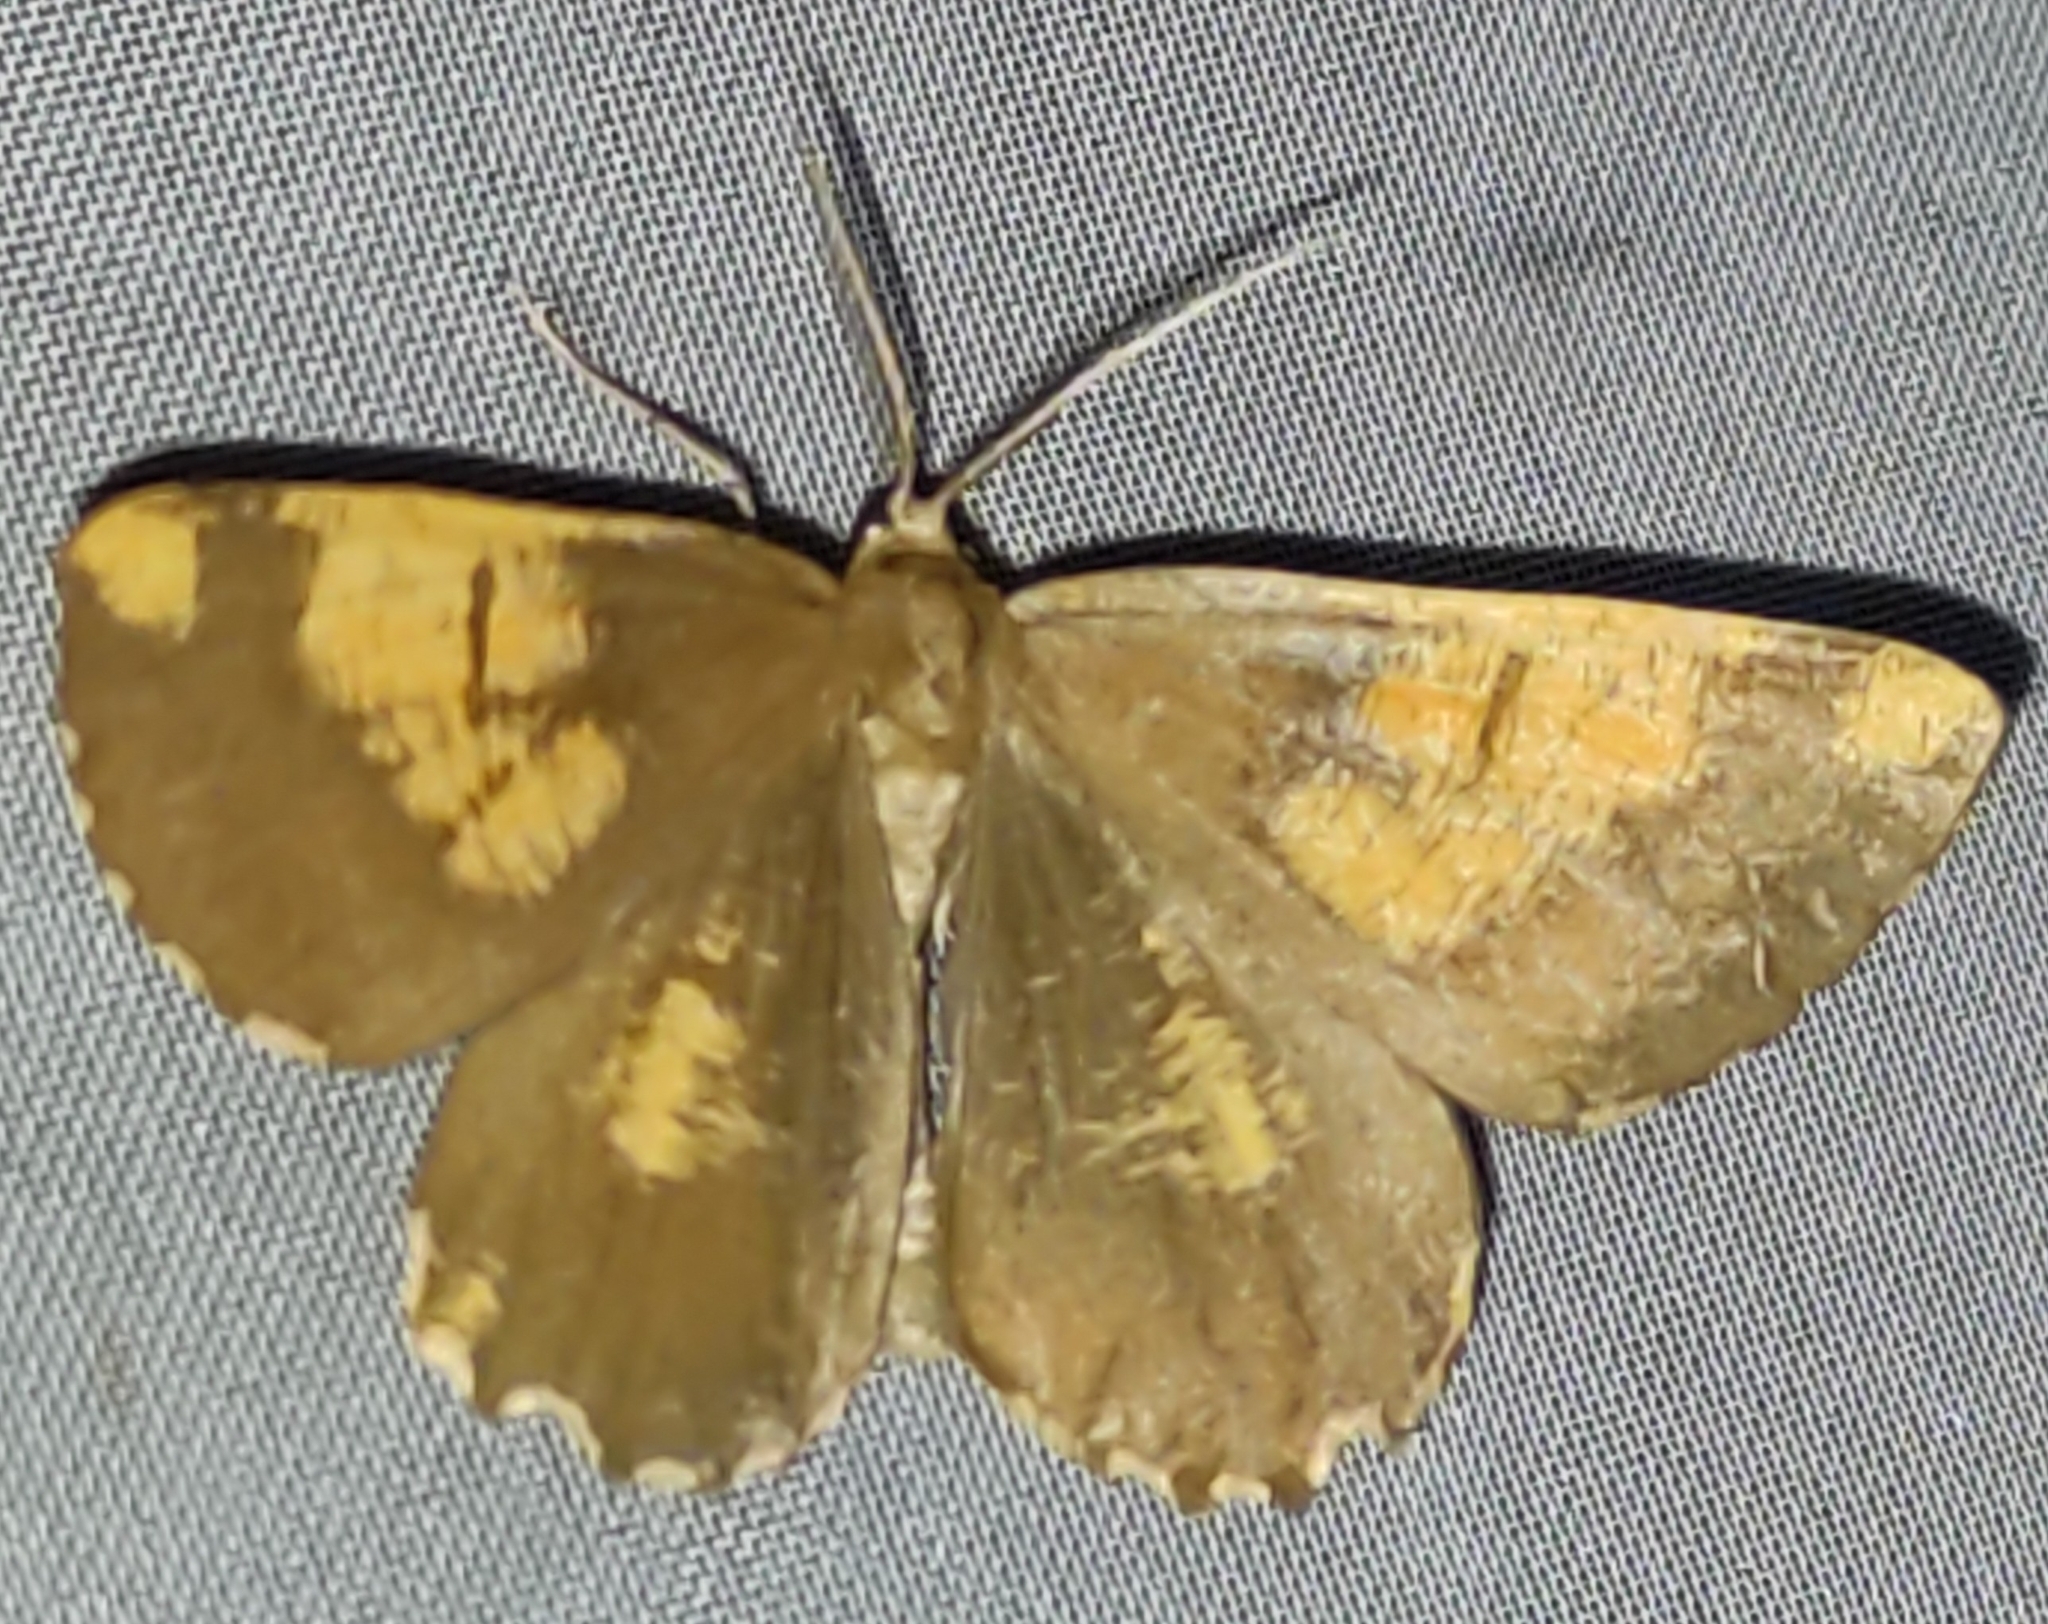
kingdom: Animalia
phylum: Arthropoda
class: Insecta
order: Lepidoptera
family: Geometridae
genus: Angerona
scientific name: Angerona prunaria
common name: Orange moth
